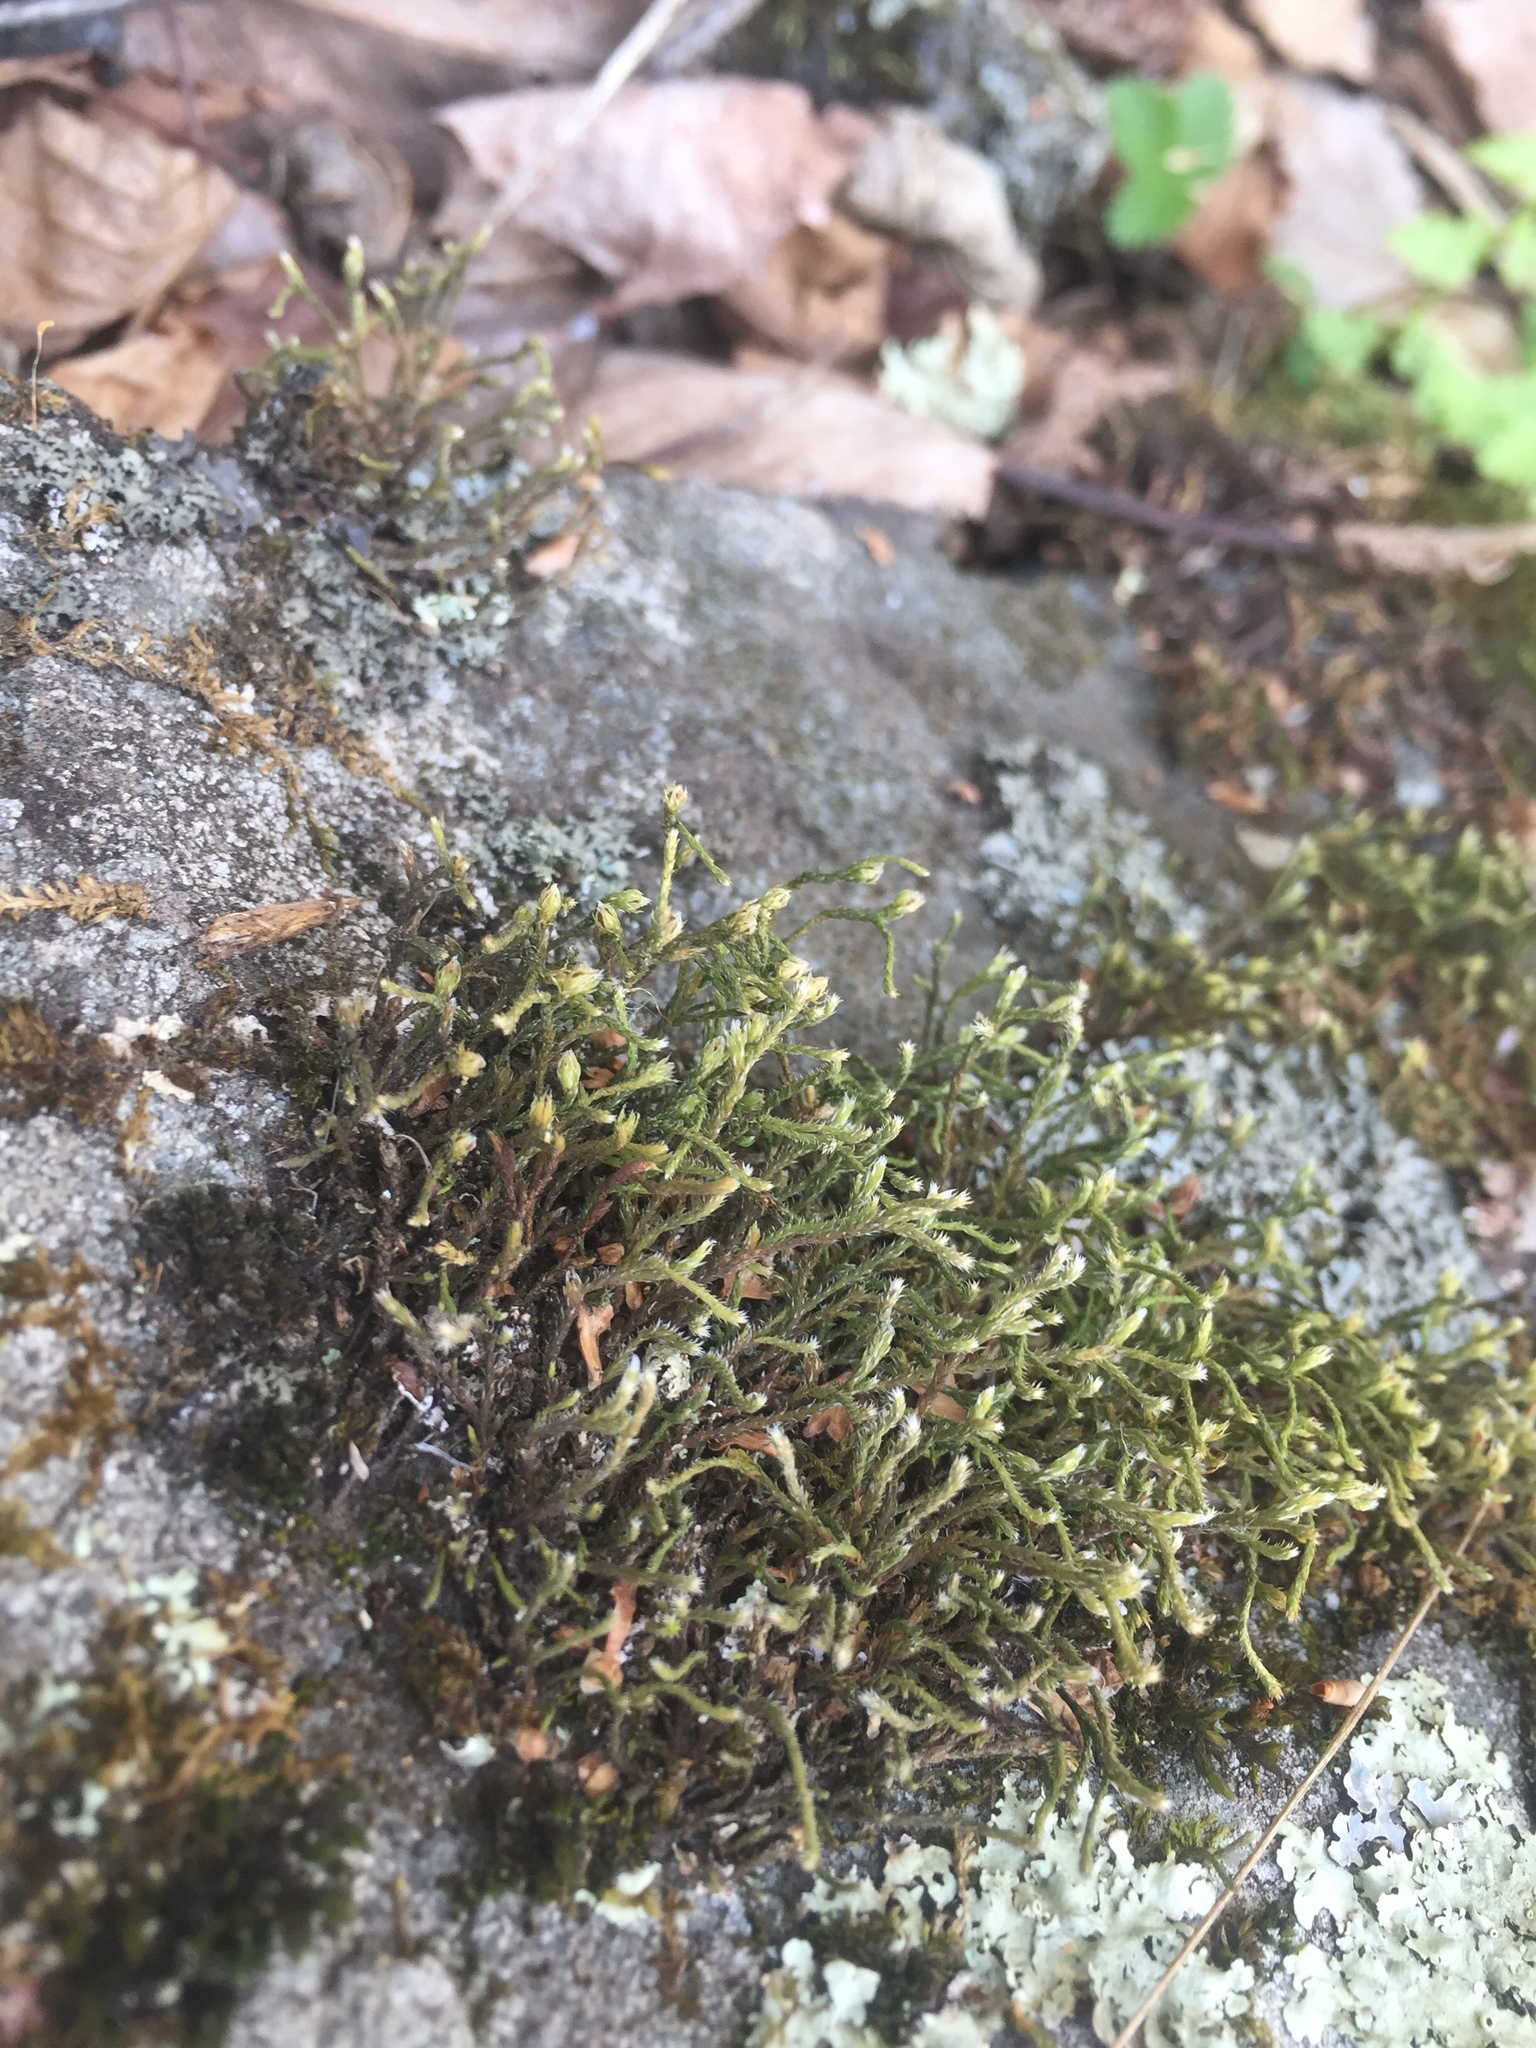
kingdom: Plantae
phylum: Bryophyta
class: Bryopsida
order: Hedwigiales
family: Hedwigiaceae
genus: Hedwigia
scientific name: Hedwigia ciliata
